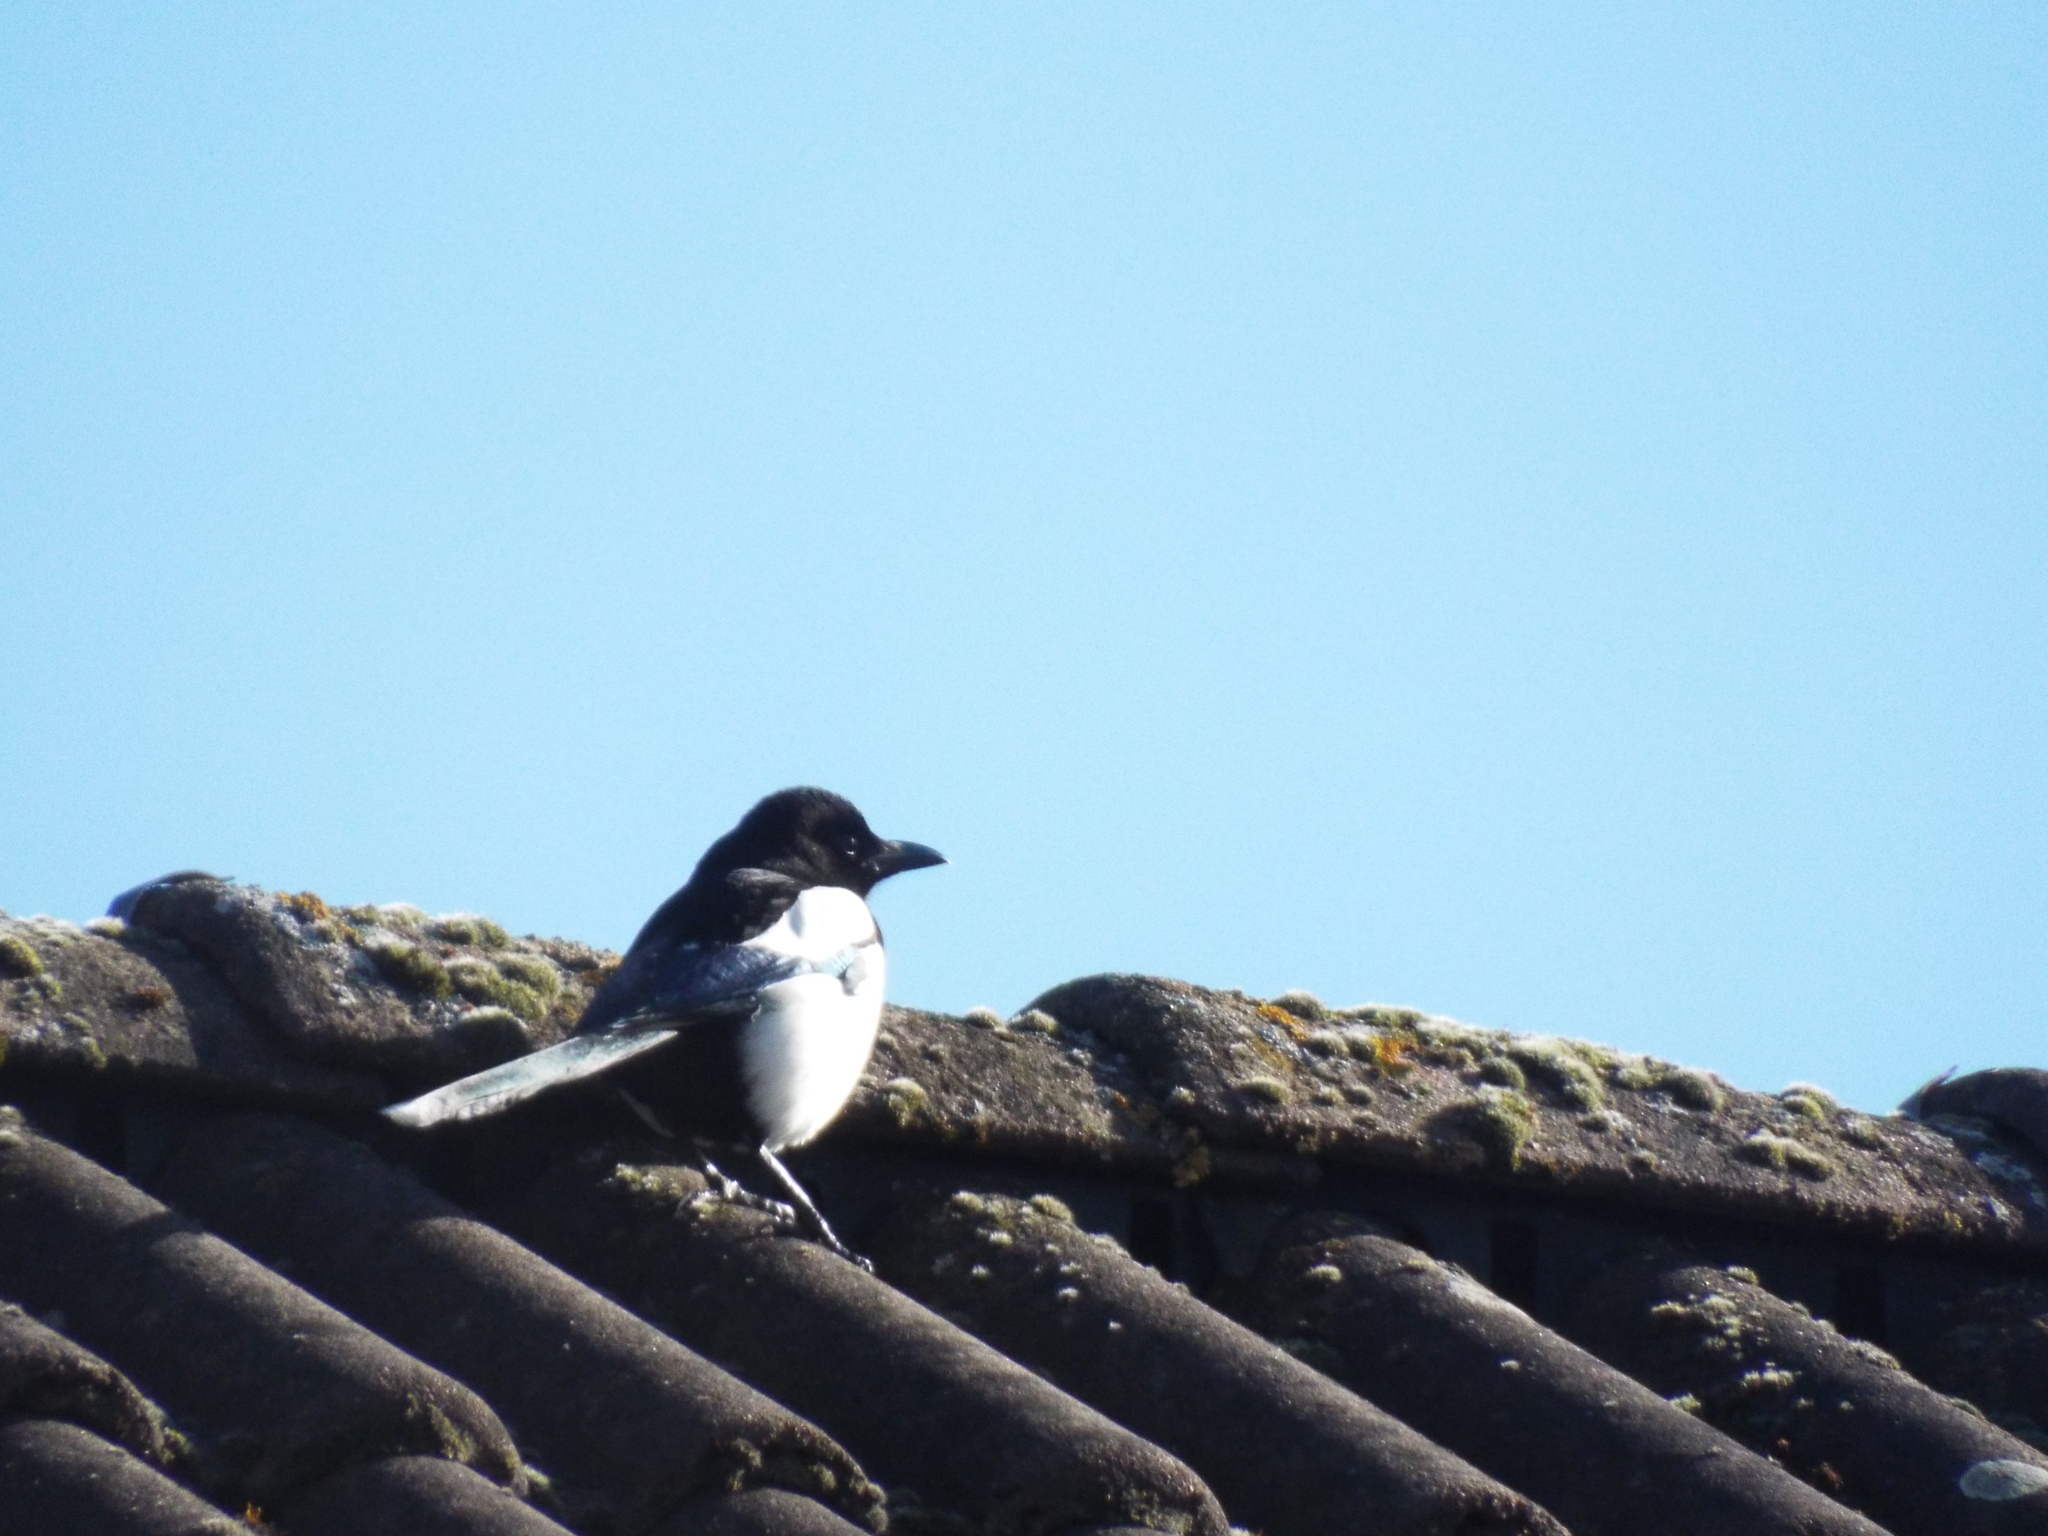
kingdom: Animalia
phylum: Chordata
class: Aves
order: Passeriformes
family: Corvidae
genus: Pica
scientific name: Pica pica
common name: Eurasian magpie
